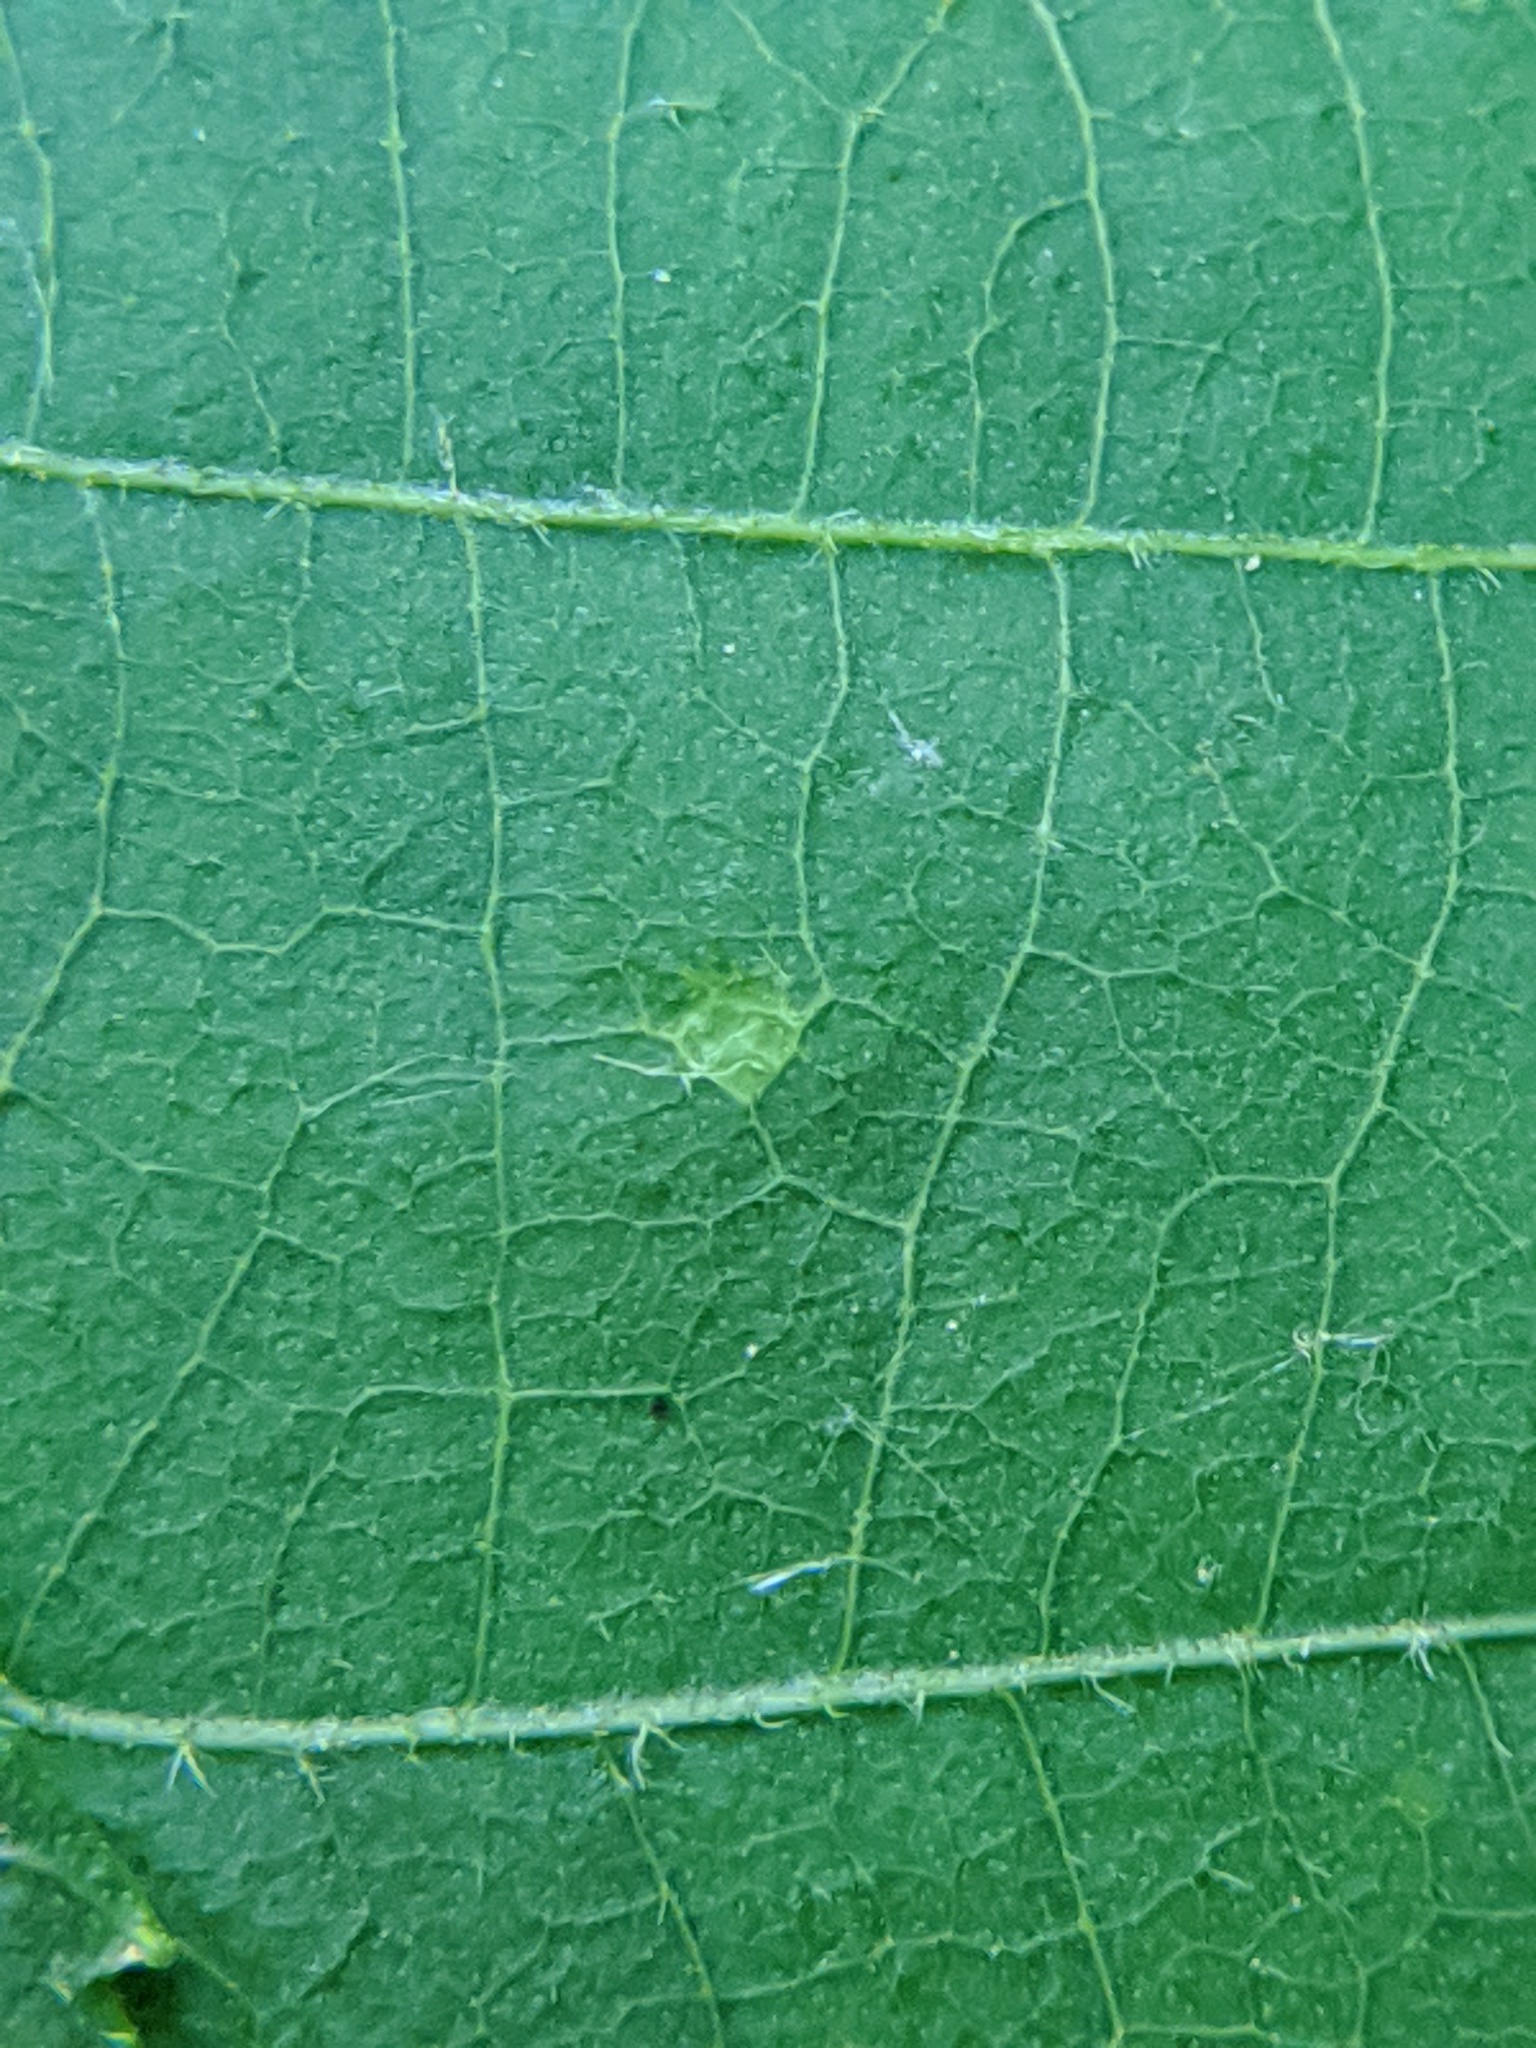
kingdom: Animalia
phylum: Arthropoda
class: Insecta
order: Diptera
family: Cecidomyiidae
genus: Caryomyia
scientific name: Caryomyia urnula
